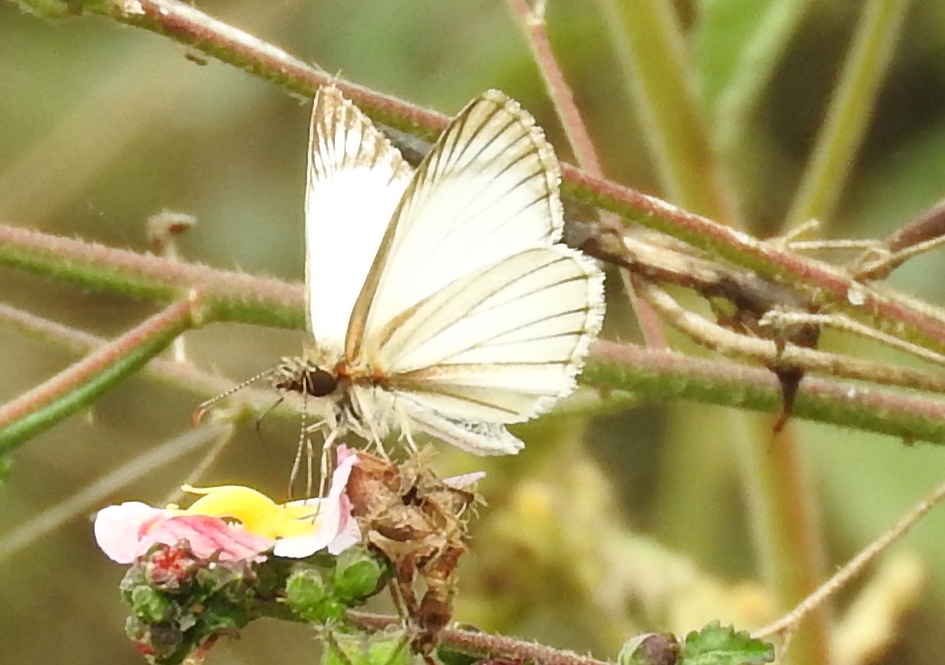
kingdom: Animalia
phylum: Arthropoda
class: Insecta
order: Lepidoptera
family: Hesperiidae
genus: Heliopetes
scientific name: Heliopetes arsalte
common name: Veined white-skipper
